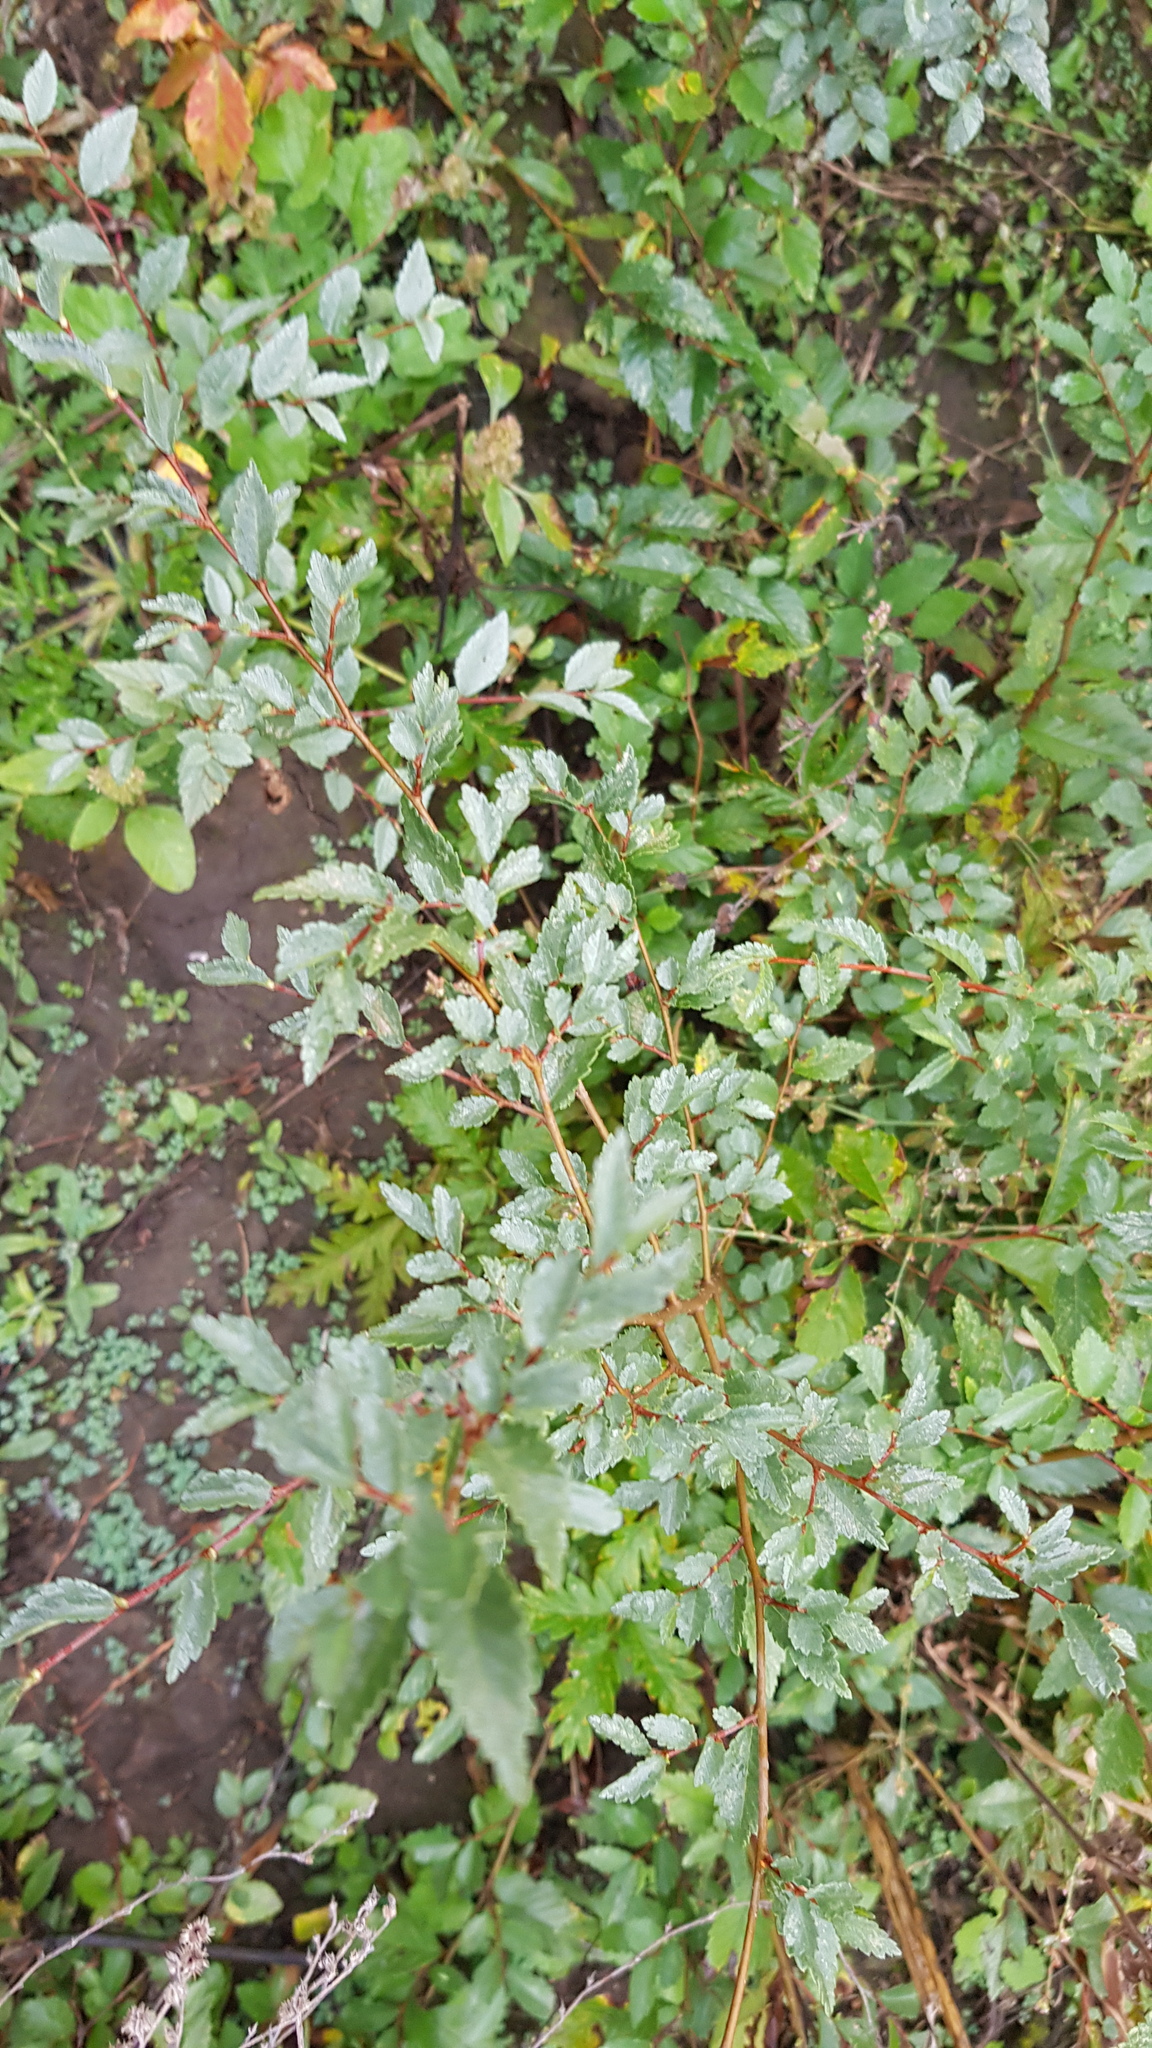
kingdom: Plantae
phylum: Tracheophyta
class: Magnoliopsida
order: Rosales
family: Ulmaceae
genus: Ulmus
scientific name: Ulmus pumila
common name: Siberian elm
